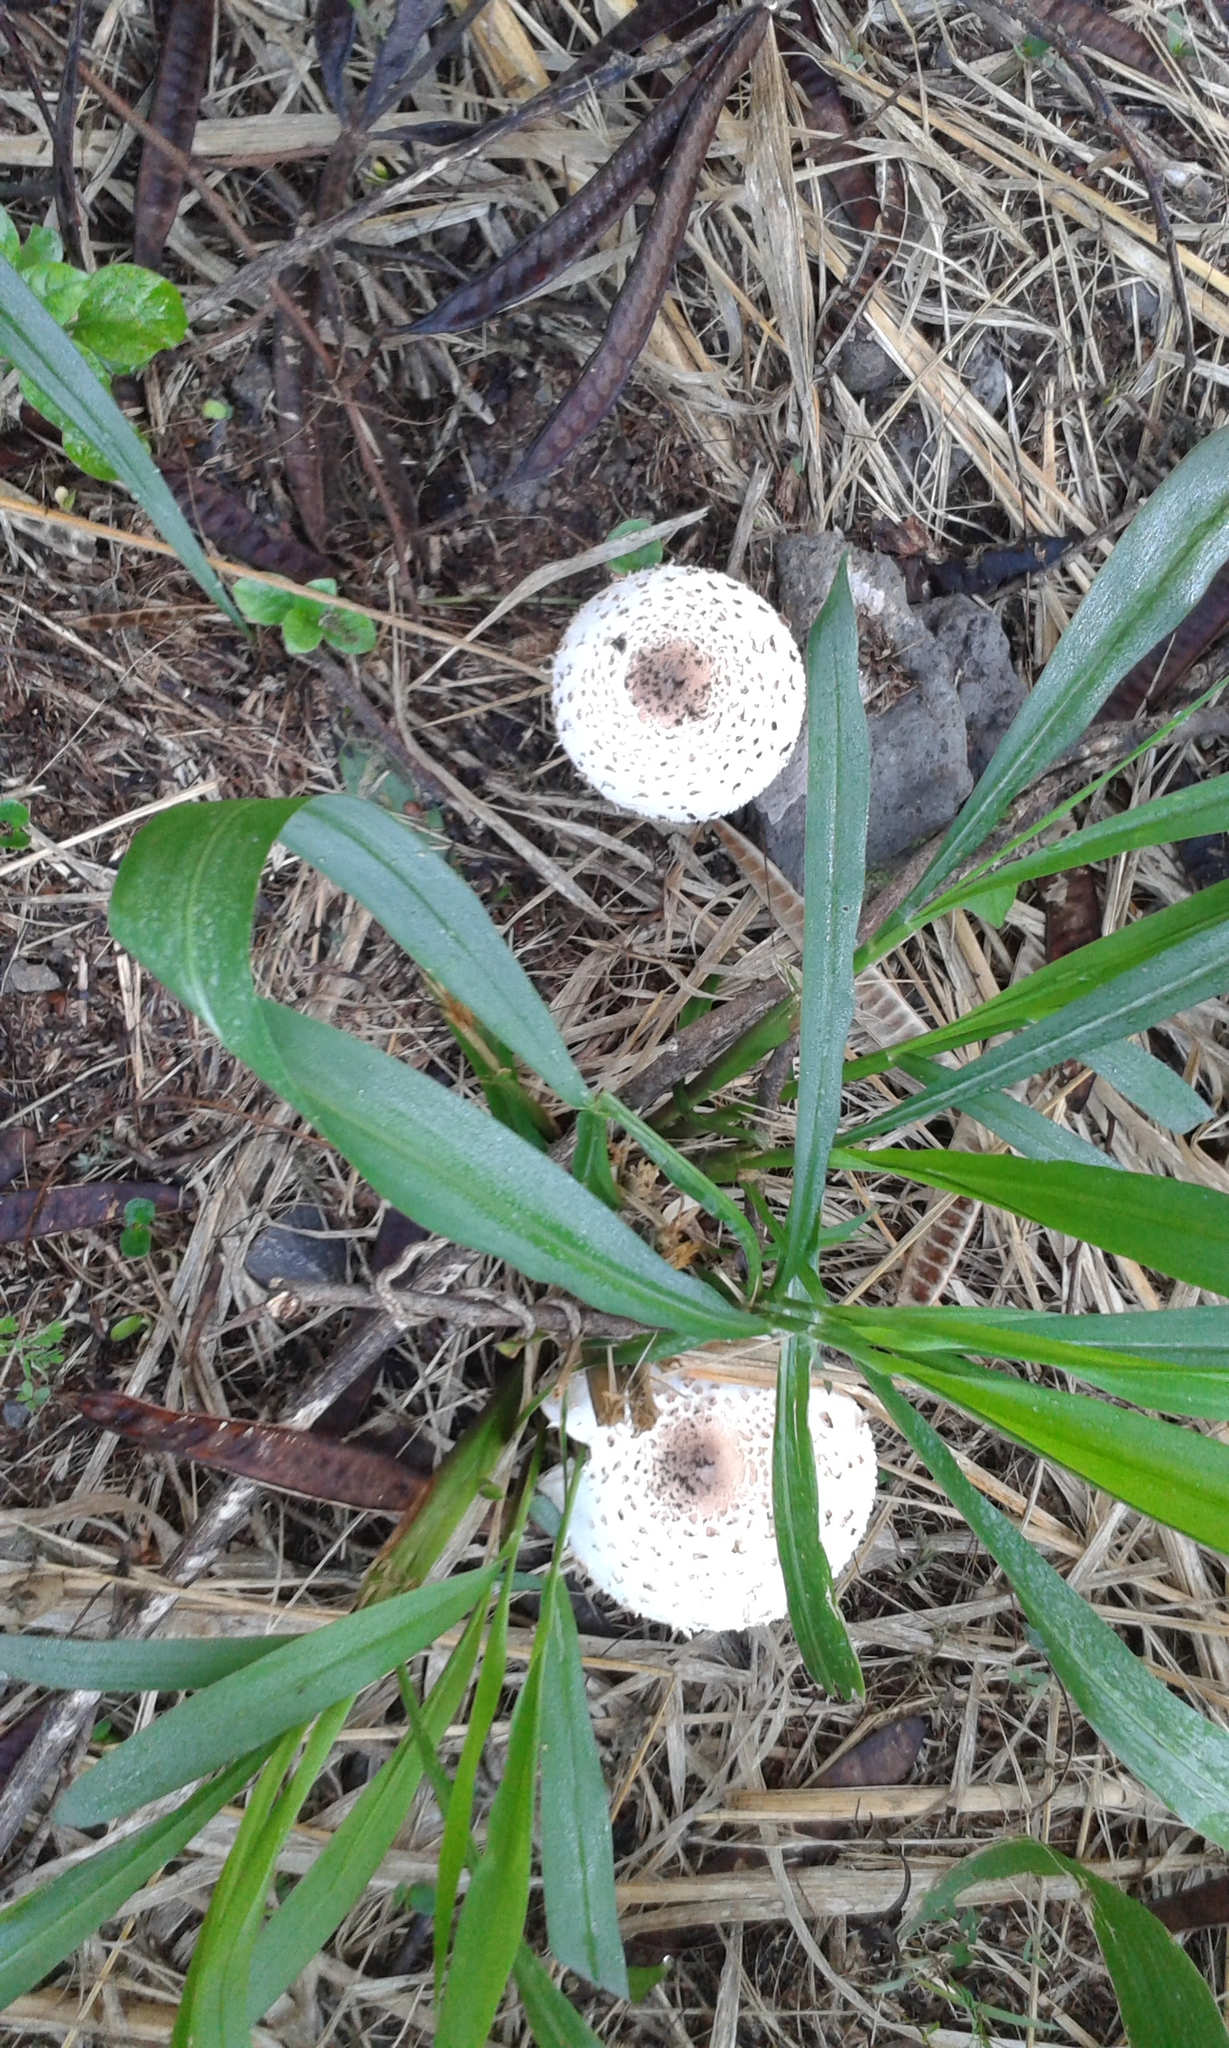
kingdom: Fungi
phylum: Basidiomycota
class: Agaricomycetes
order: Agaricales
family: Agaricaceae
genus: Chlorophyllum
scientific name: Chlorophyllum molybdites
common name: False parasol
